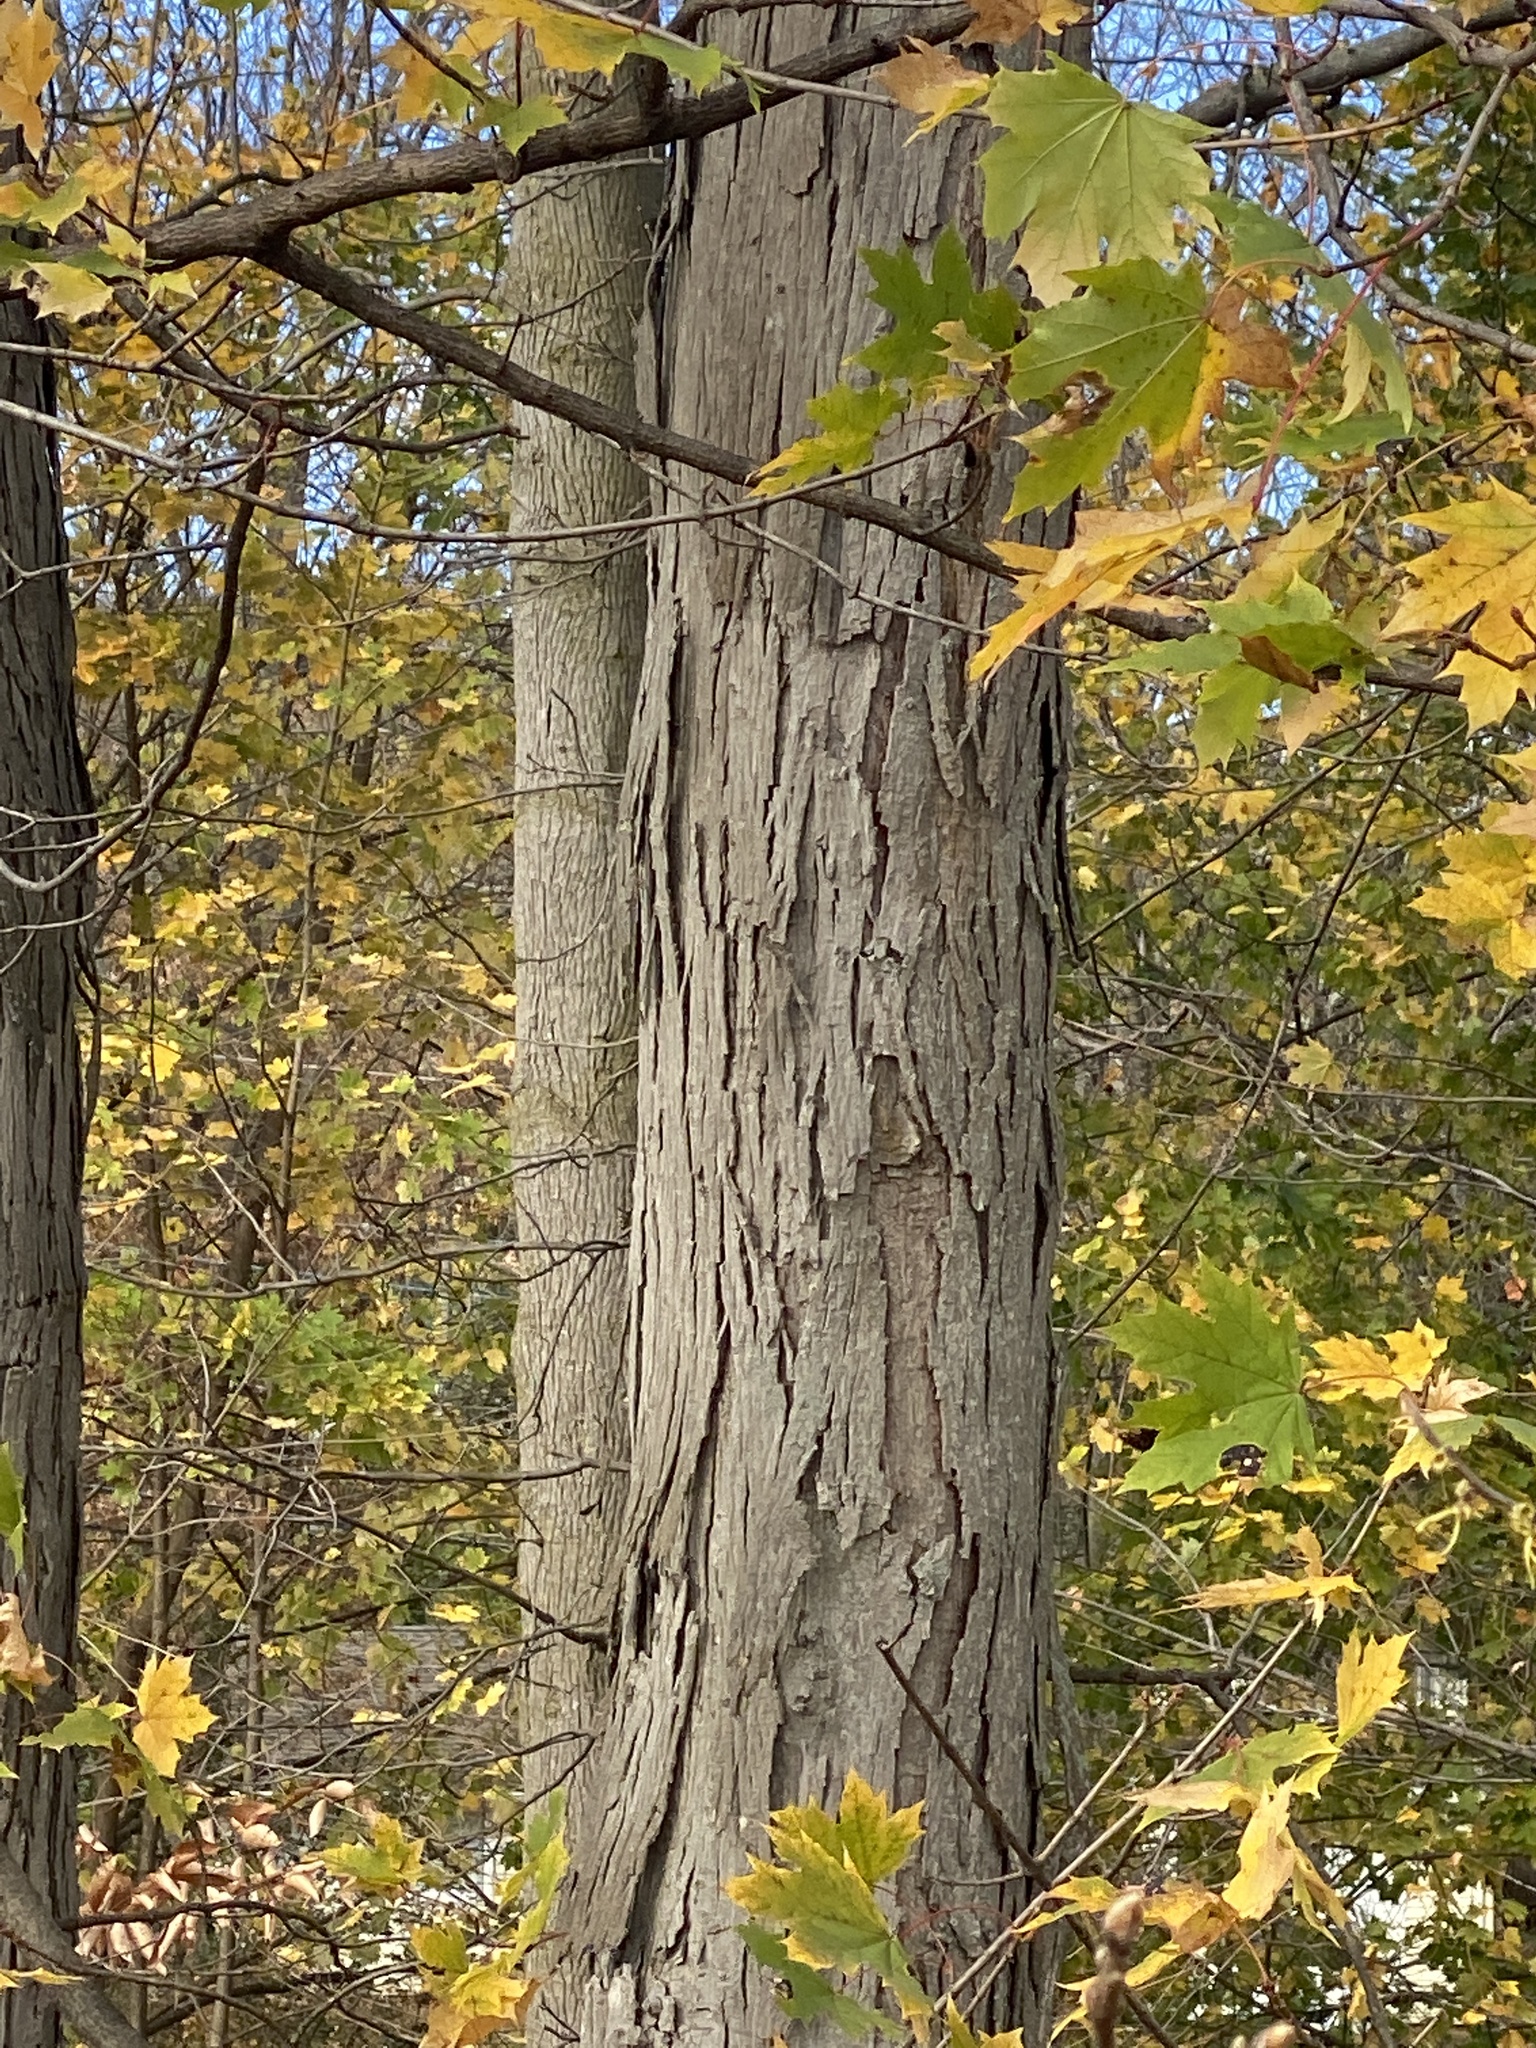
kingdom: Plantae
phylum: Tracheophyta
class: Magnoliopsida
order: Fagales
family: Juglandaceae
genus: Carya
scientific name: Carya ovata
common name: Shagbark hickory
